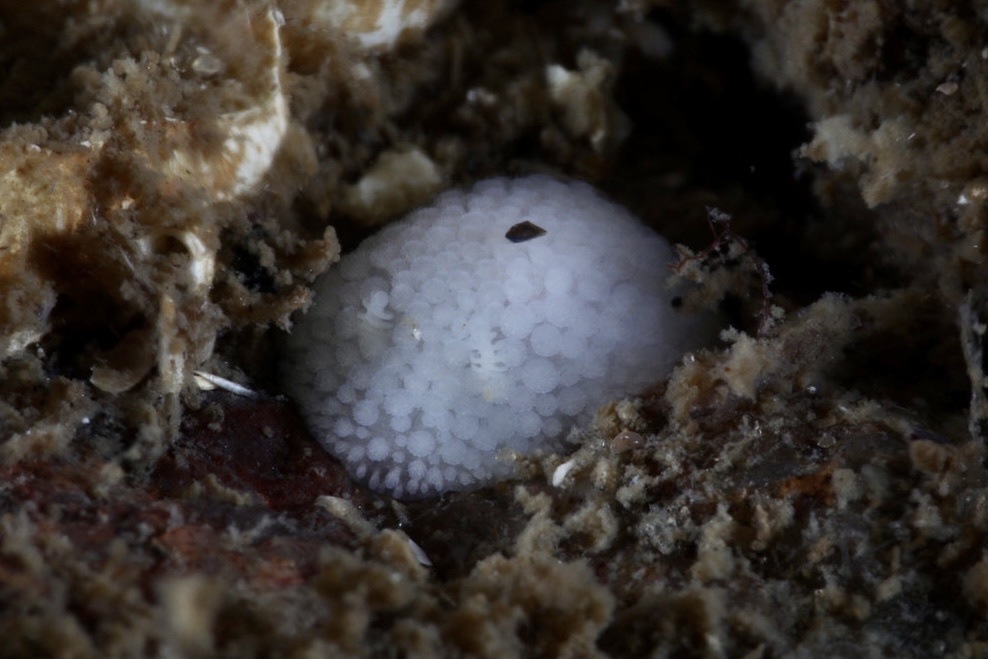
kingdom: Animalia
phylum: Mollusca
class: Gastropoda
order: Nudibranchia
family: Onchidorididae
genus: Onchidoris
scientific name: Onchidoris muricata
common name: Rough doris
